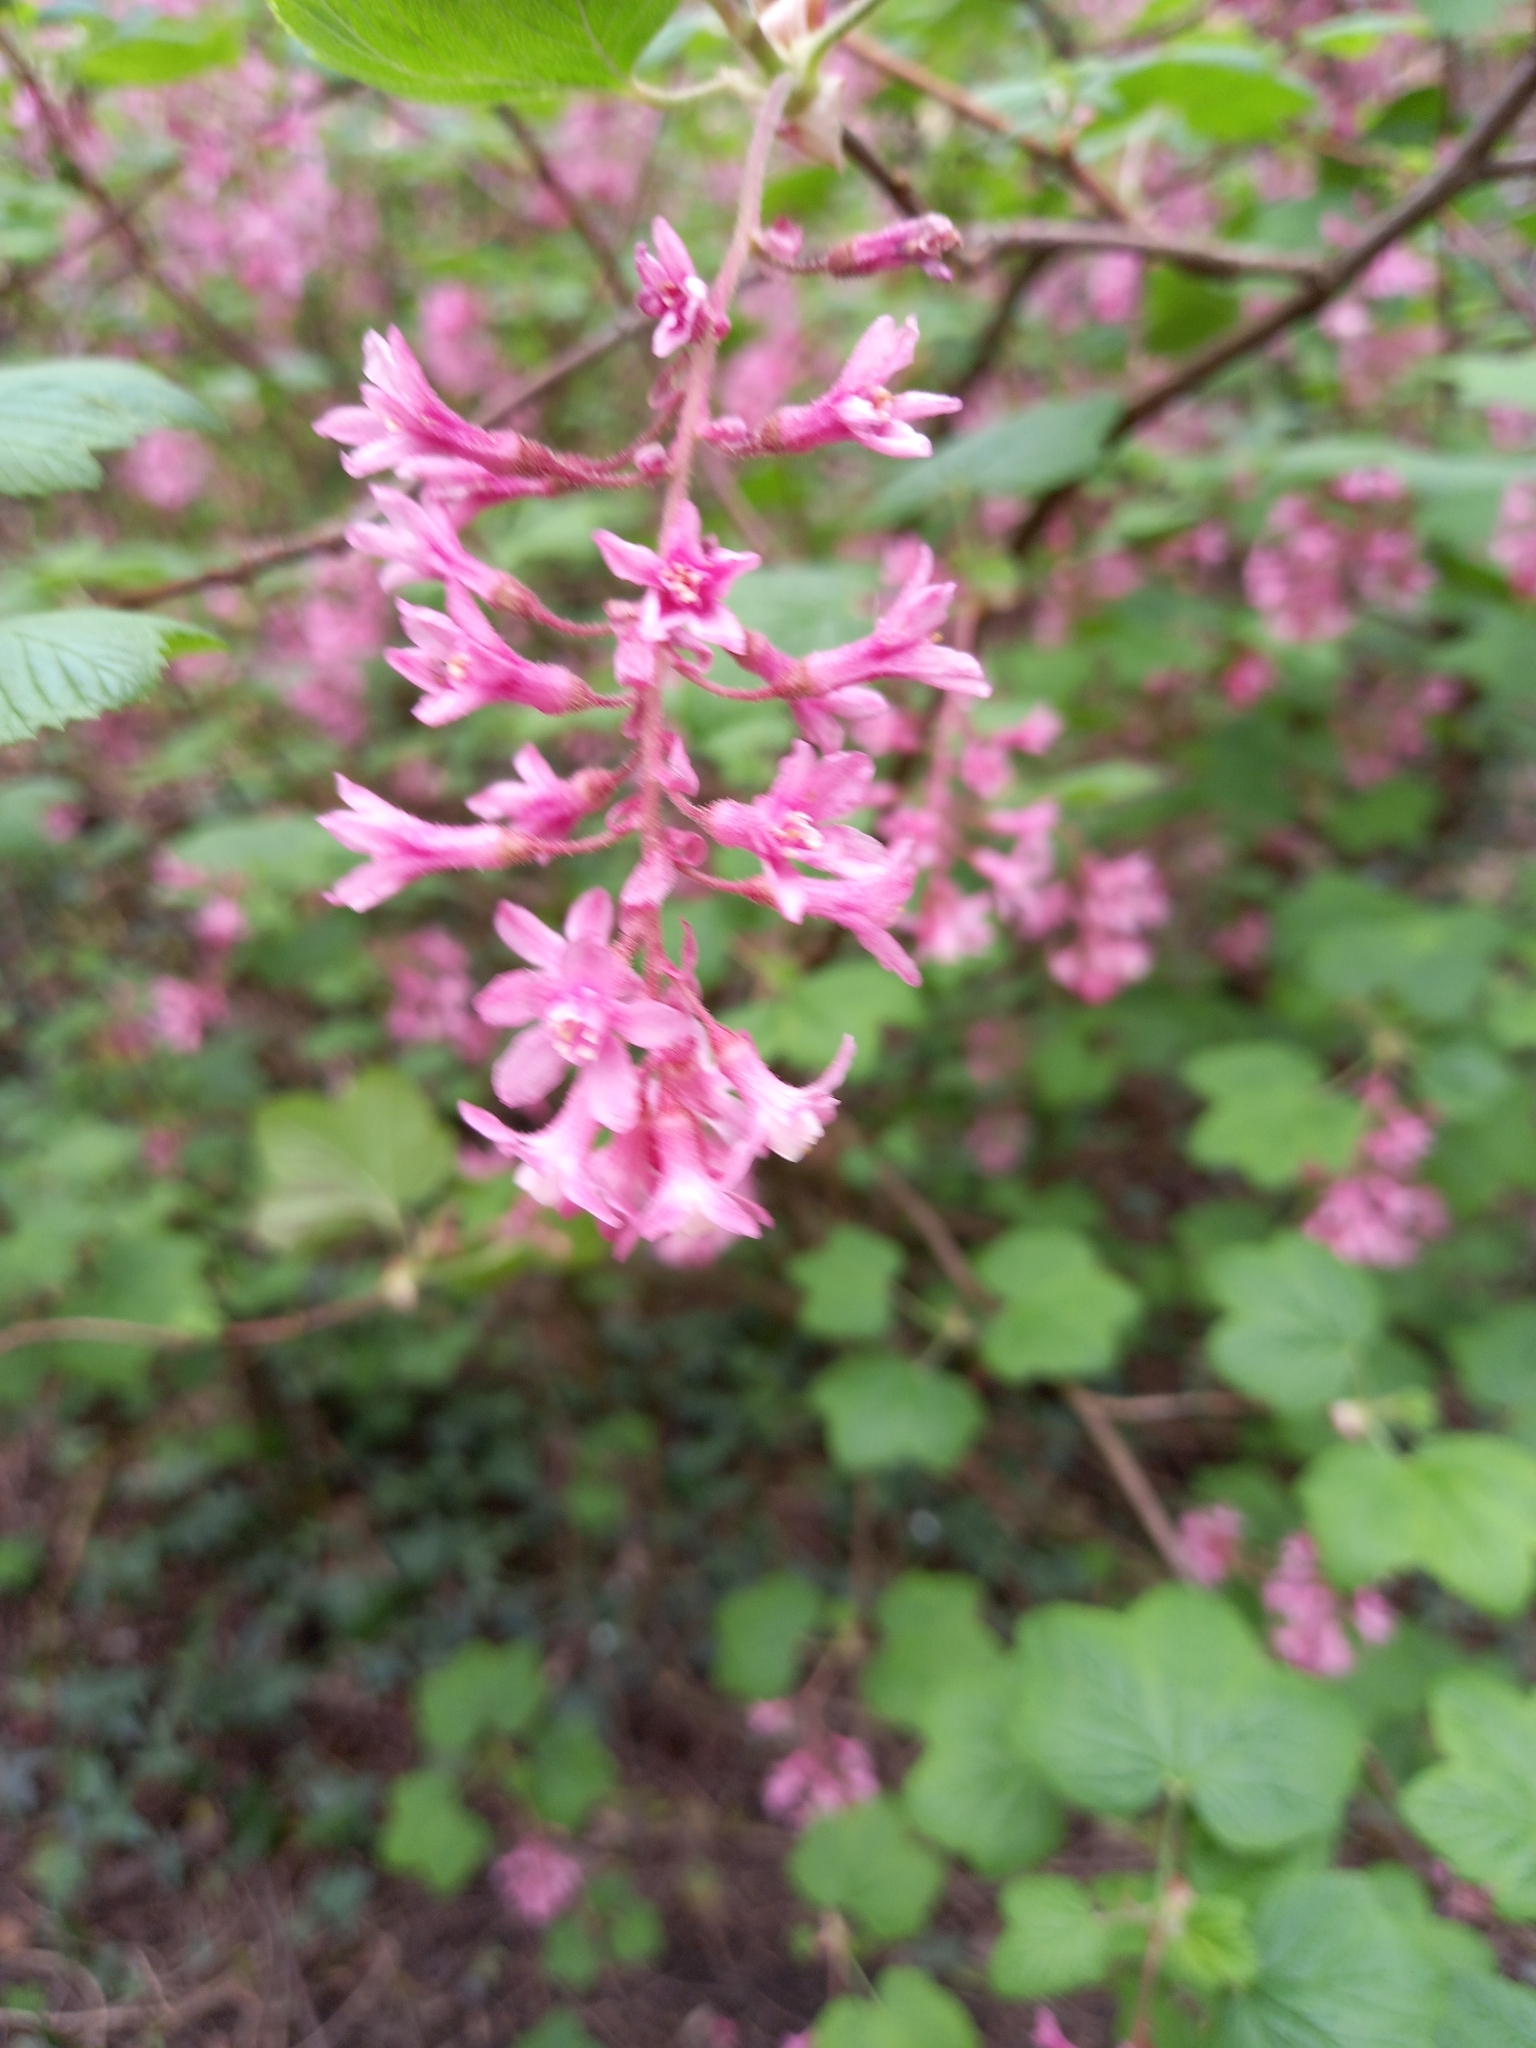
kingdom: Plantae
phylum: Tracheophyta
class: Magnoliopsida
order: Saxifragales
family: Grossulariaceae
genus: Ribes
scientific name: Ribes sanguineum
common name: Flowering currant
